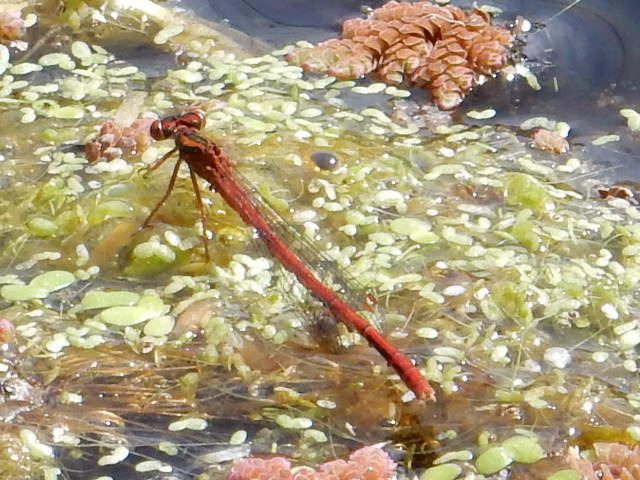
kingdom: Animalia
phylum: Arthropoda
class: Insecta
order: Odonata
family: Coenagrionidae
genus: Xanthocnemis
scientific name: Xanthocnemis zealandica
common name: Common redcoat damselfly
